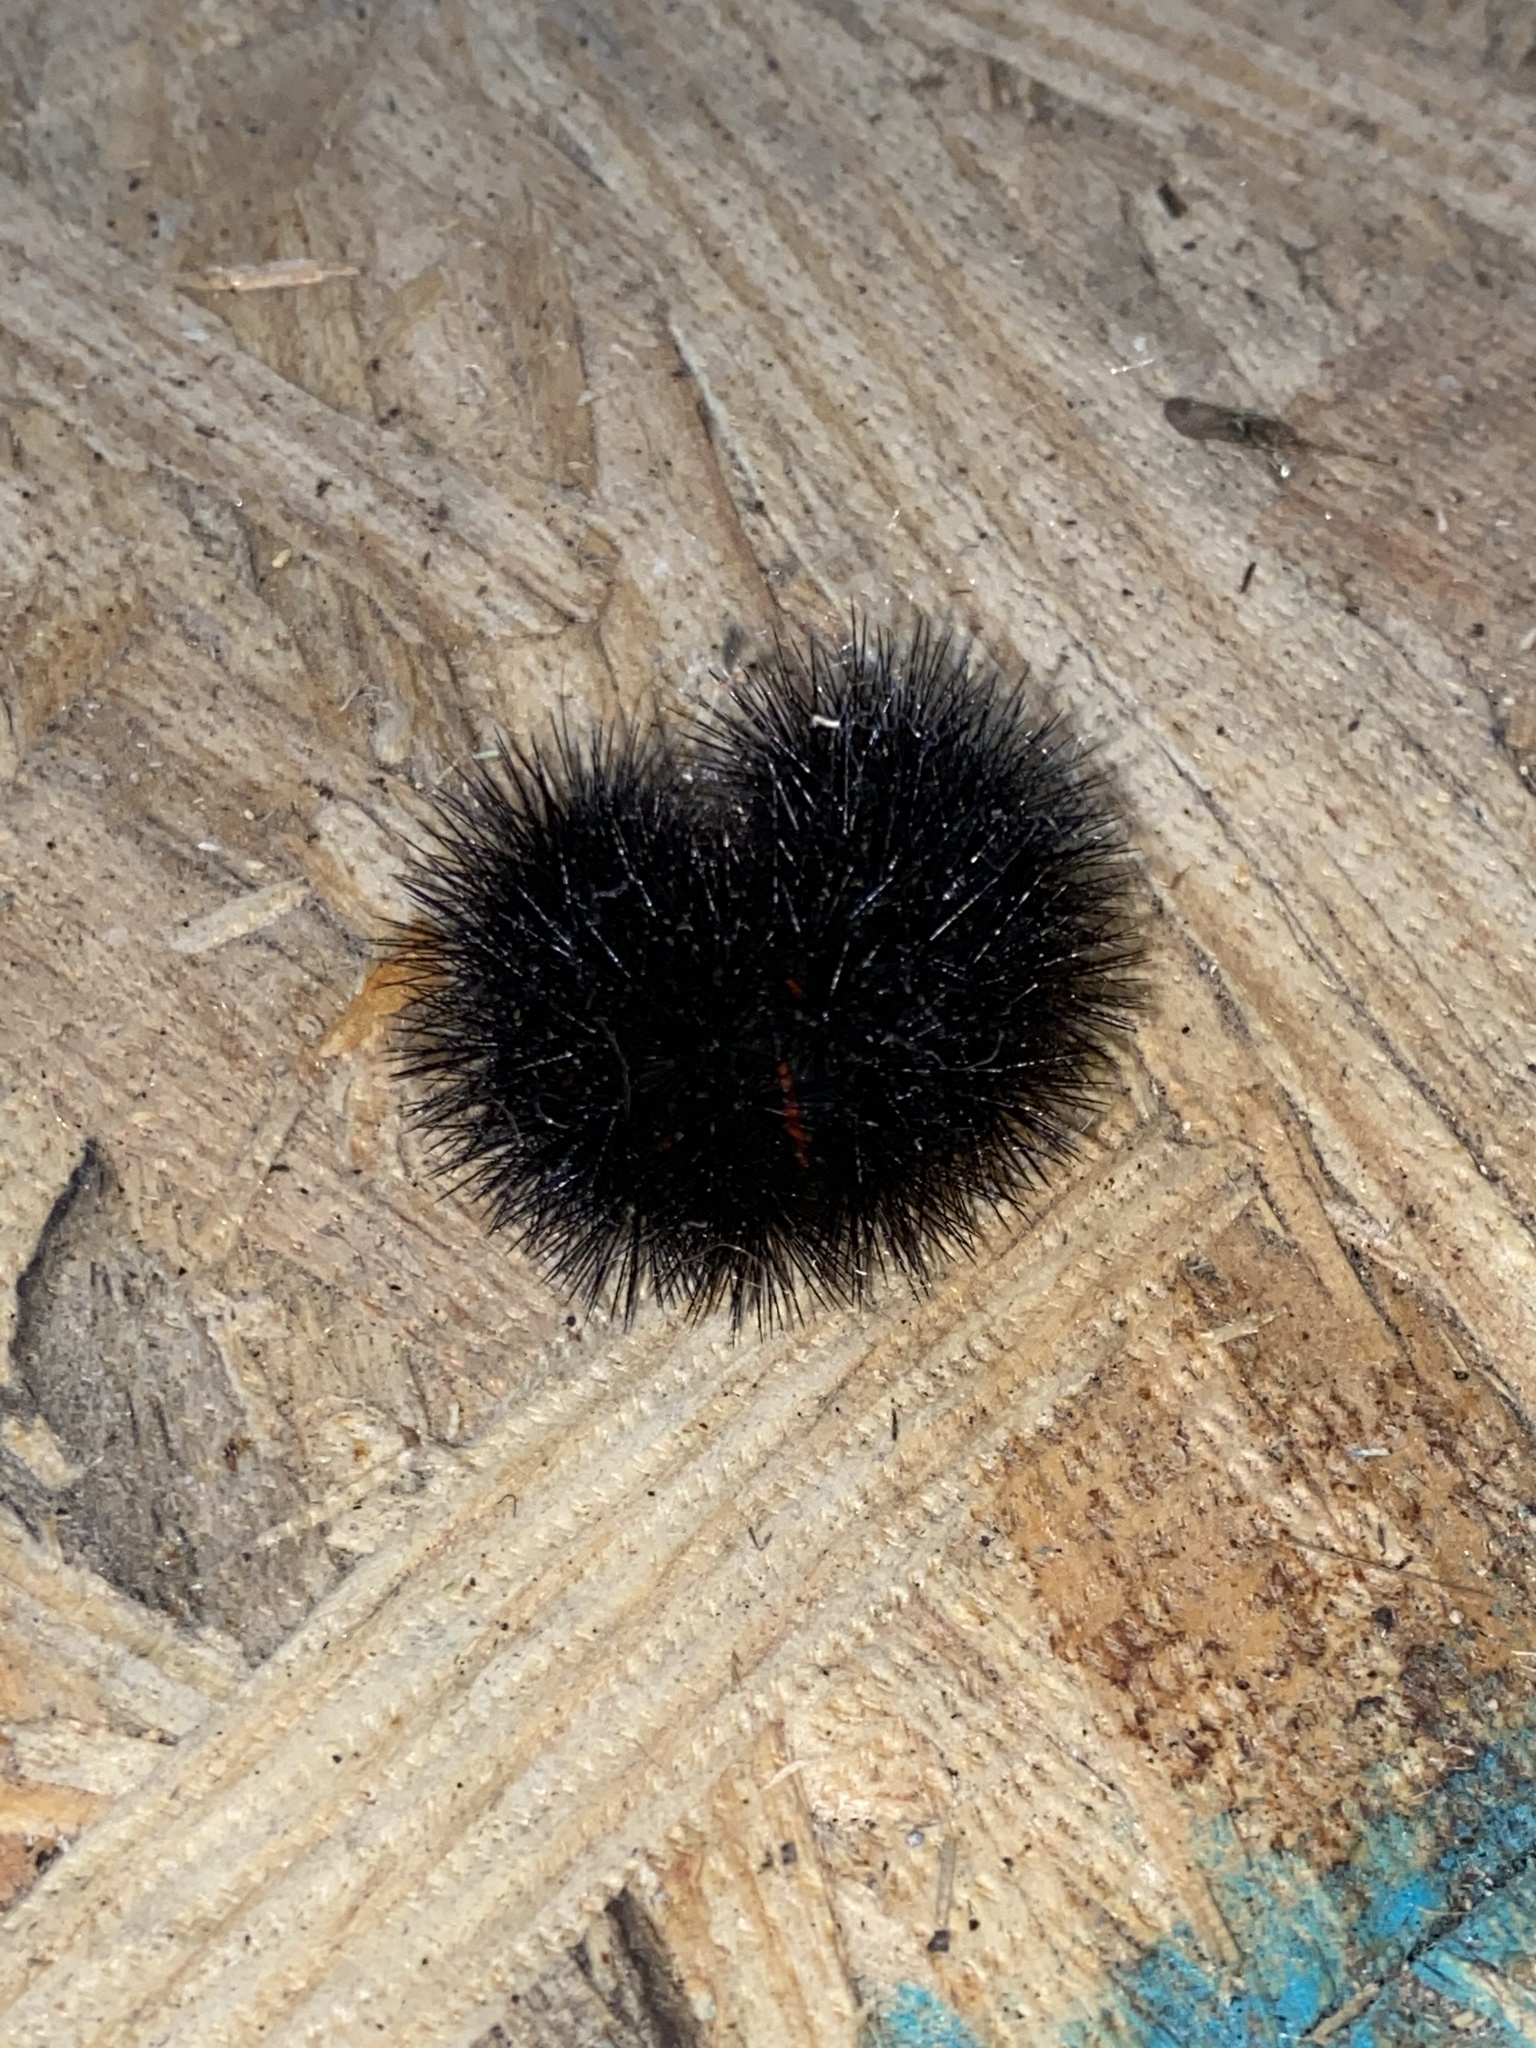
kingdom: Animalia
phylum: Arthropoda
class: Insecta
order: Lepidoptera
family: Erebidae
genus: Hypercompe
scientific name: Hypercompe scribonia
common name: Giant leopard moth
